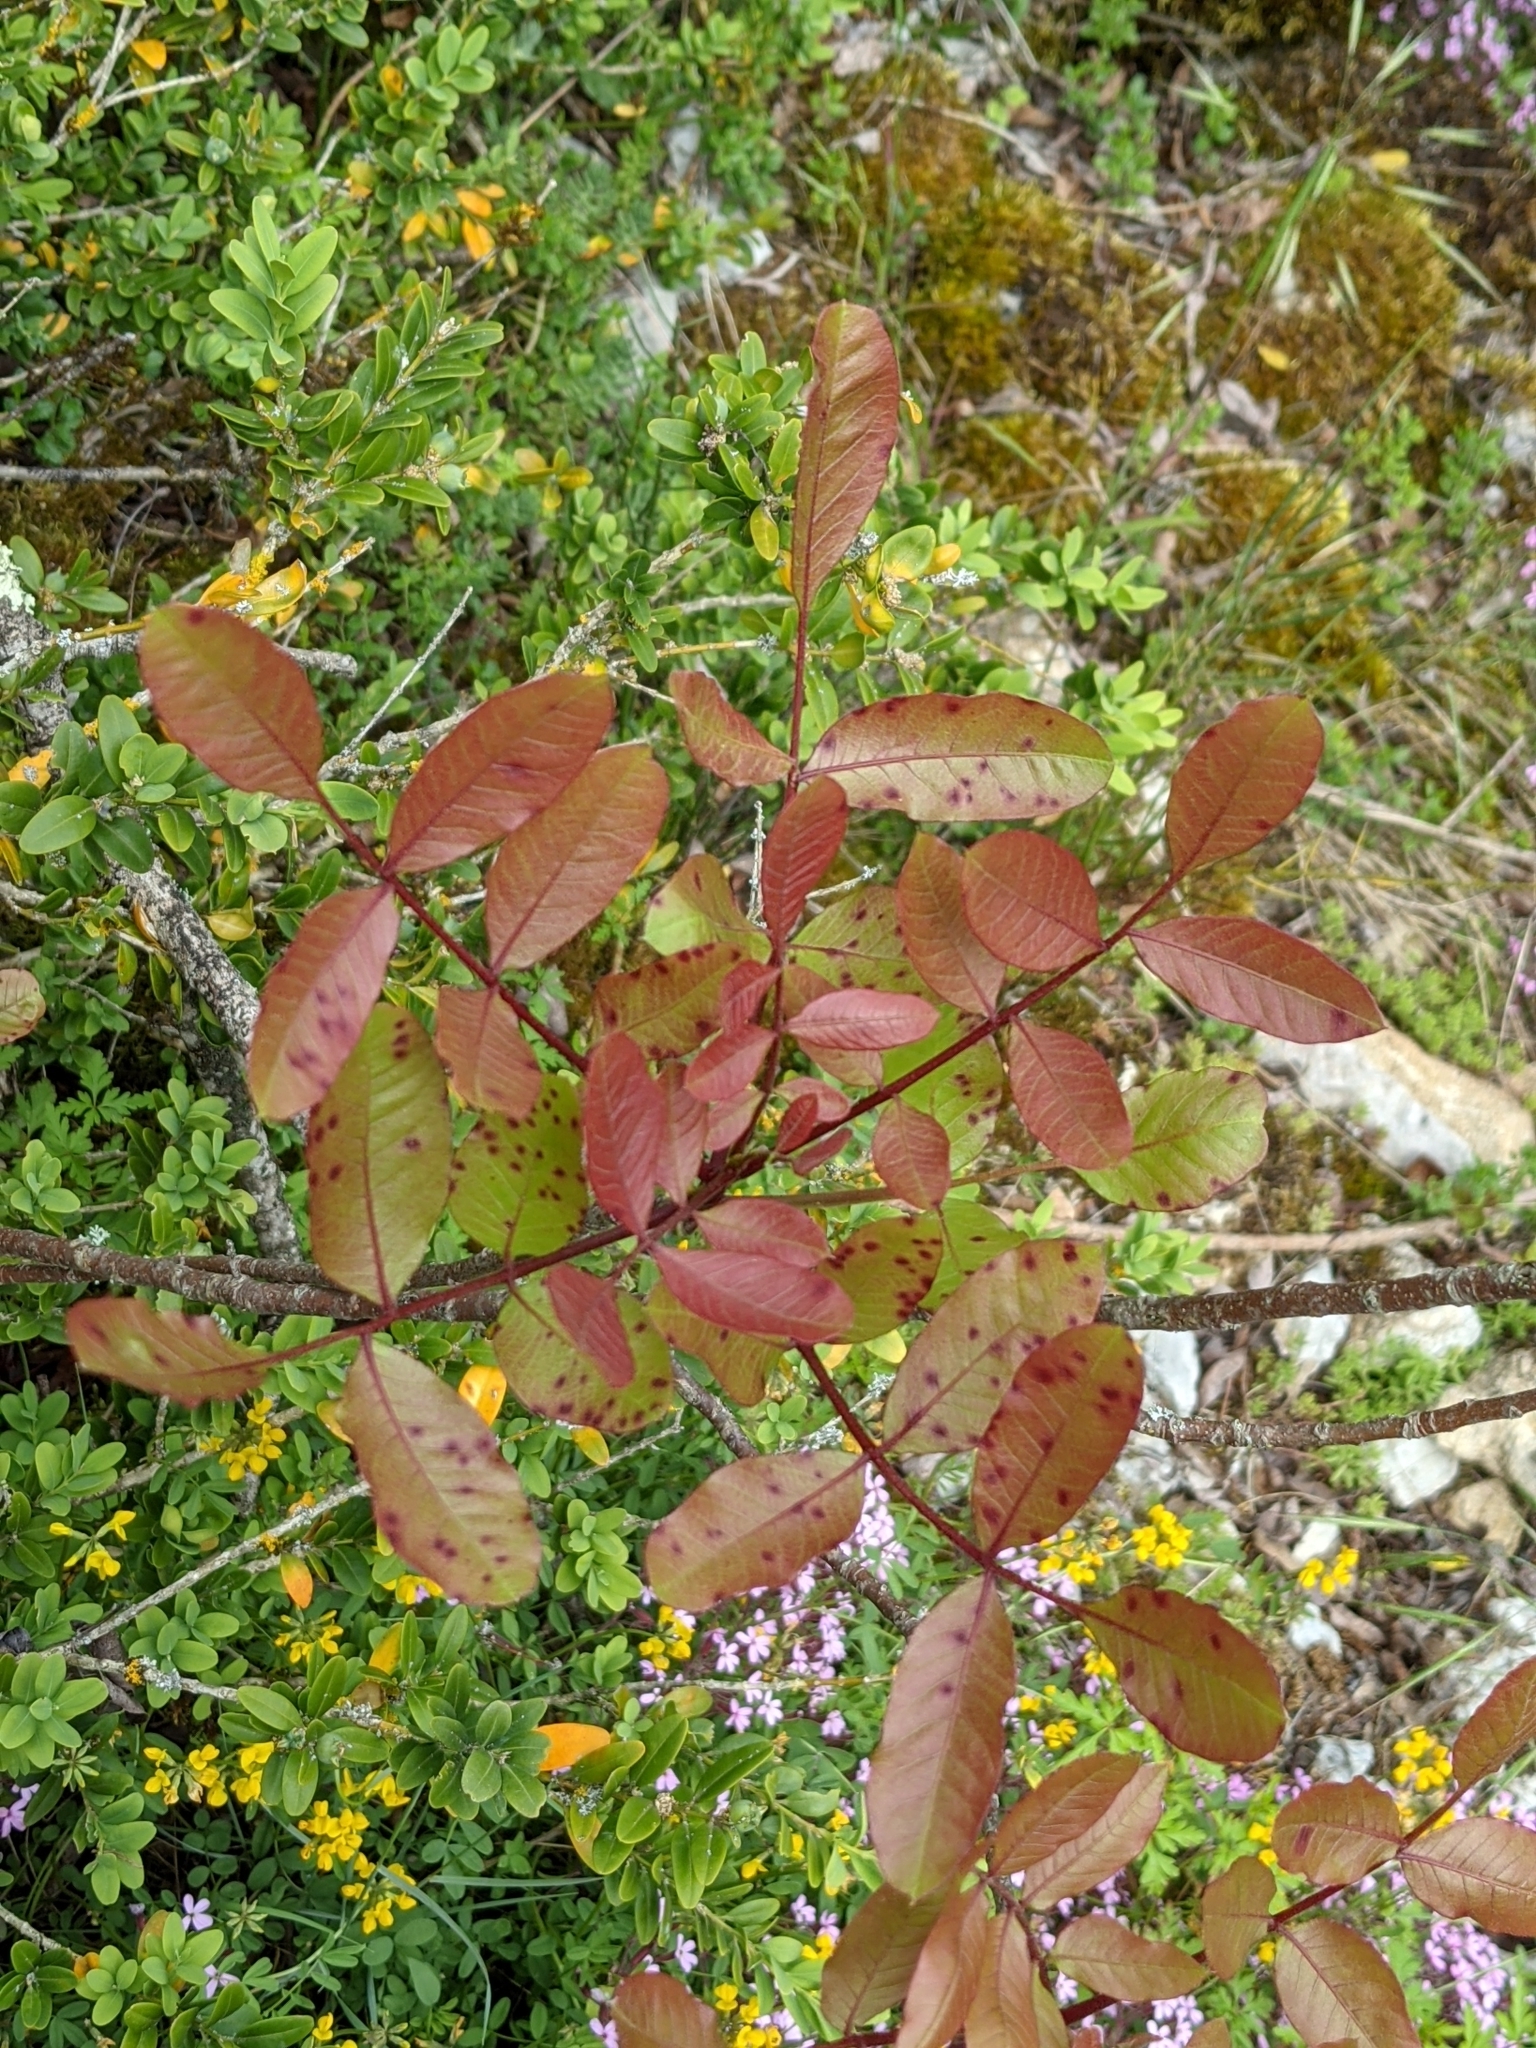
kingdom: Plantae
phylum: Tracheophyta
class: Magnoliopsida
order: Sapindales
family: Anacardiaceae
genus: Pistacia
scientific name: Pistacia terebinthus
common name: Terebinth
